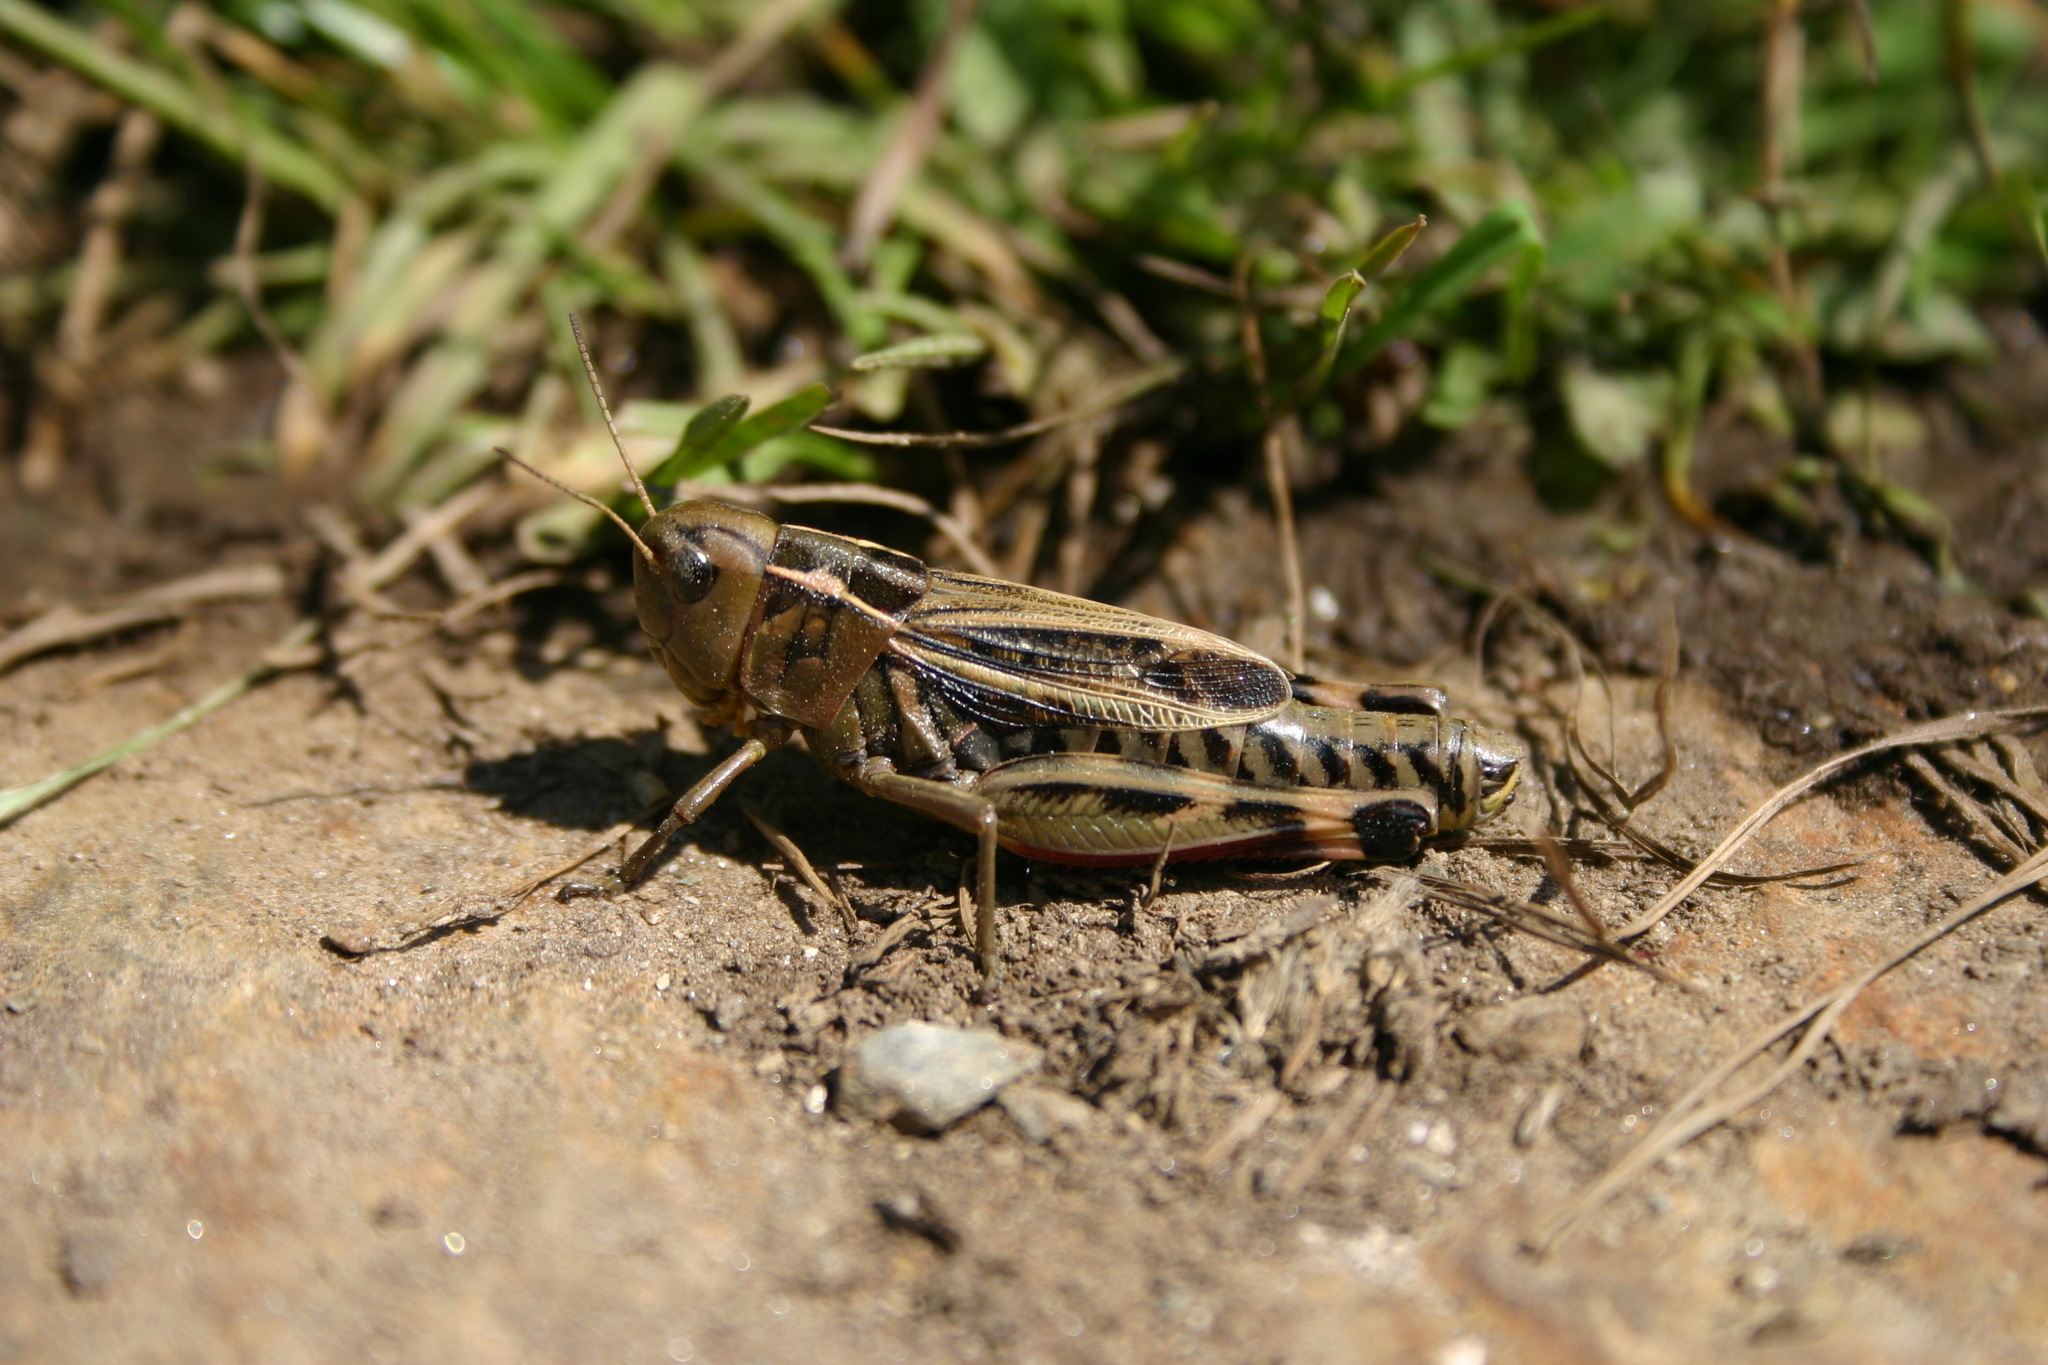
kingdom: Animalia
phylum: Arthropoda
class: Insecta
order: Orthoptera
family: Acrididae
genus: Arcyptera
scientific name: Arcyptera fusca
